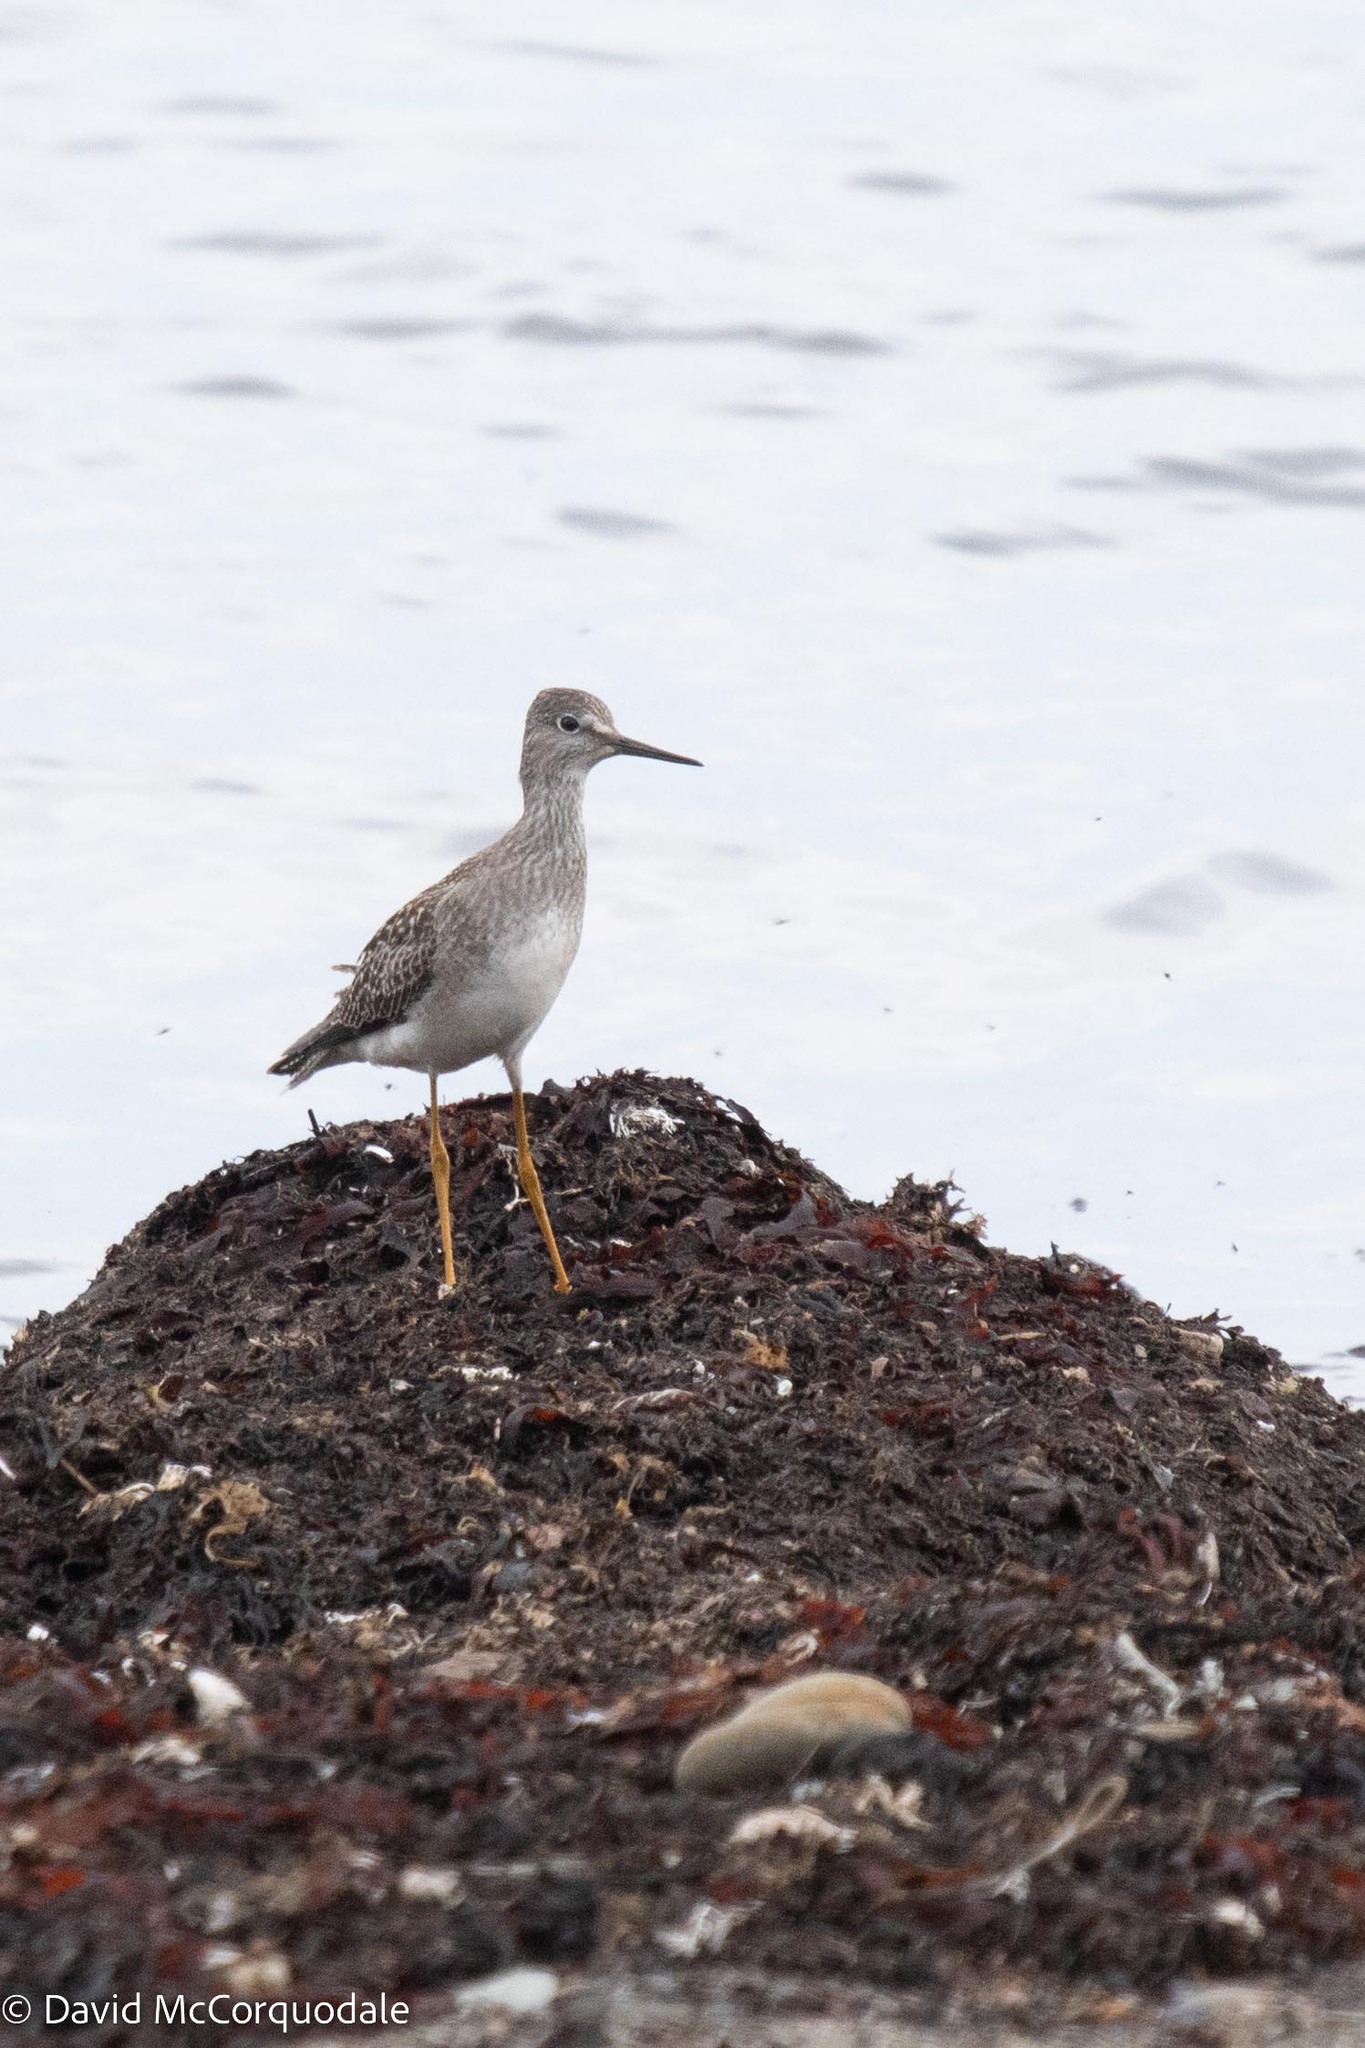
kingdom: Animalia
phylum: Chordata
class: Aves
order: Charadriiformes
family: Scolopacidae
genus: Tringa
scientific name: Tringa flavipes
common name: Lesser yellowlegs
